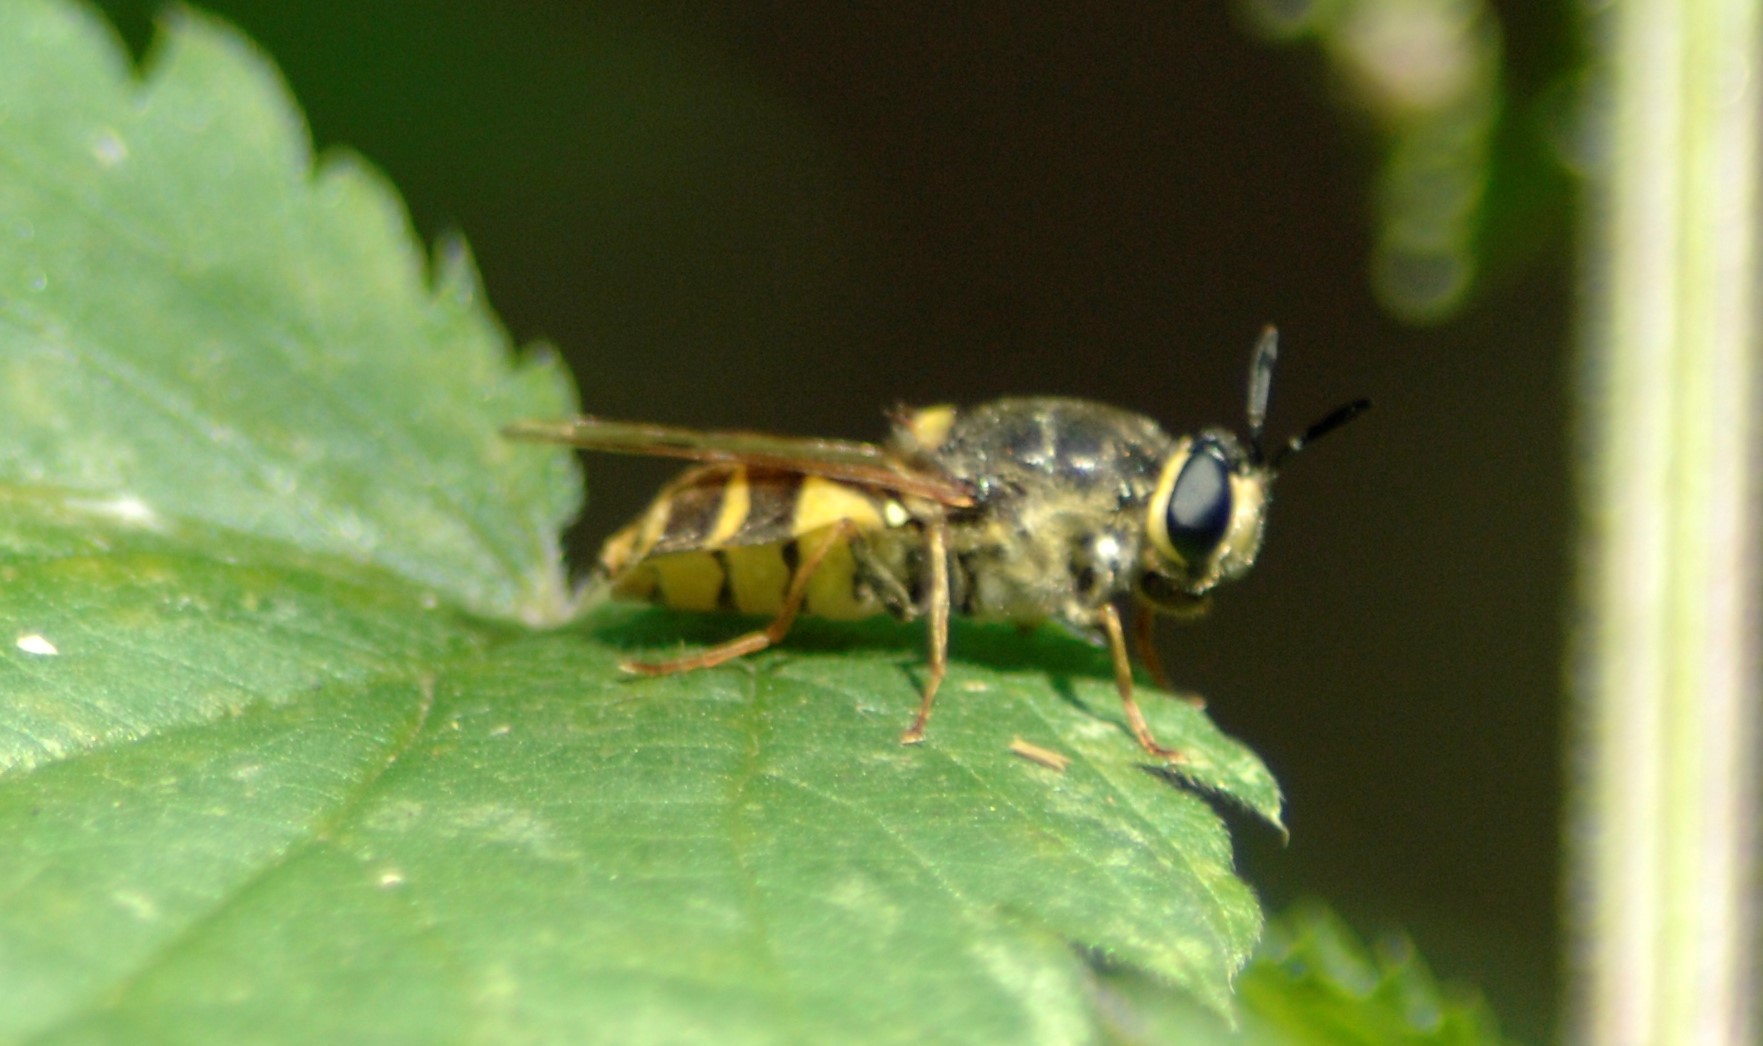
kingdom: Animalia
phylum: Arthropoda
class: Insecta
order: Diptera
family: Stratiomyidae
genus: Stratiomys
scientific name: Stratiomys potamida
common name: Banded general
